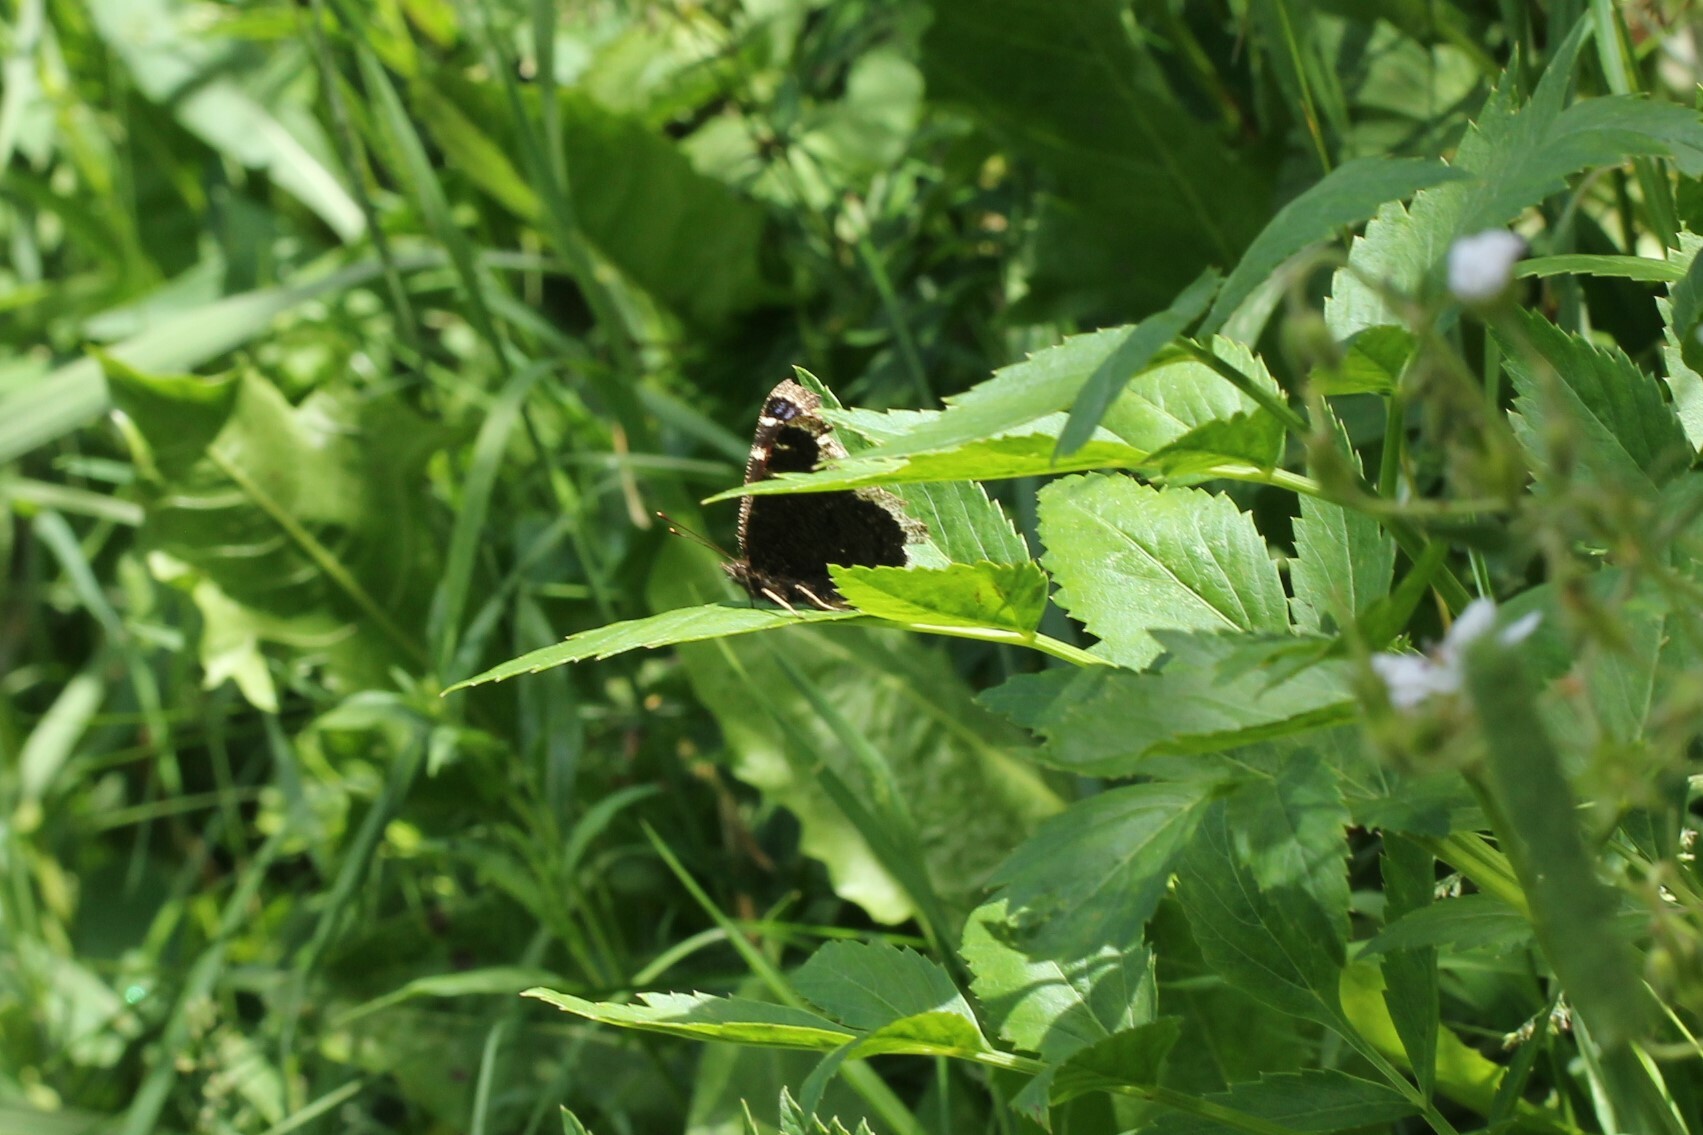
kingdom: Animalia
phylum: Arthropoda
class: Insecta
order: Lepidoptera
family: Nymphalidae
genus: Nymphalis
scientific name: Nymphalis antiopa
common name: Camberwell beauty
